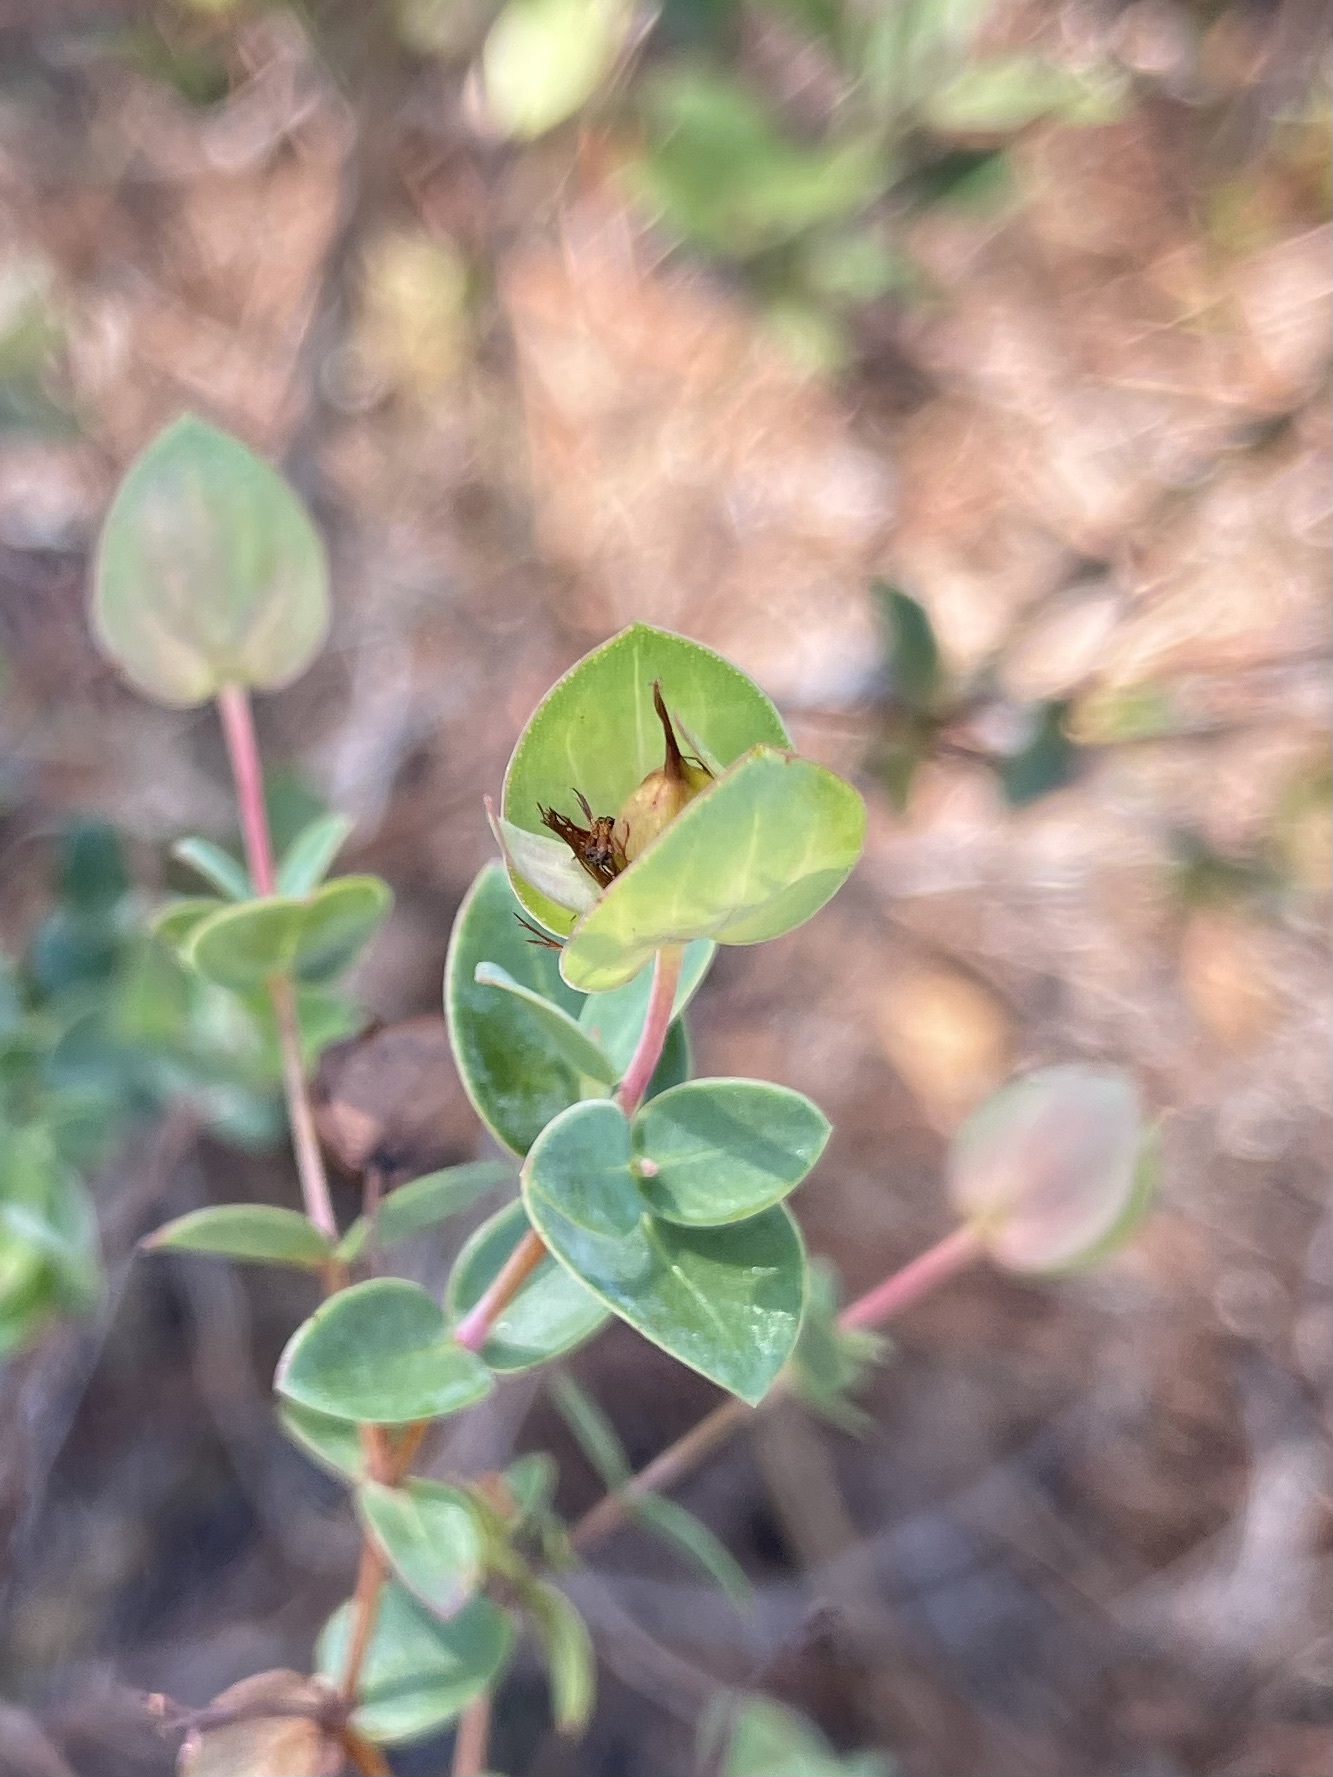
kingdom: Plantae
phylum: Tracheophyta
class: Magnoliopsida
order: Malpighiales
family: Hypericaceae
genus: Hypericum
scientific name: Hypericum tetrapetalum
